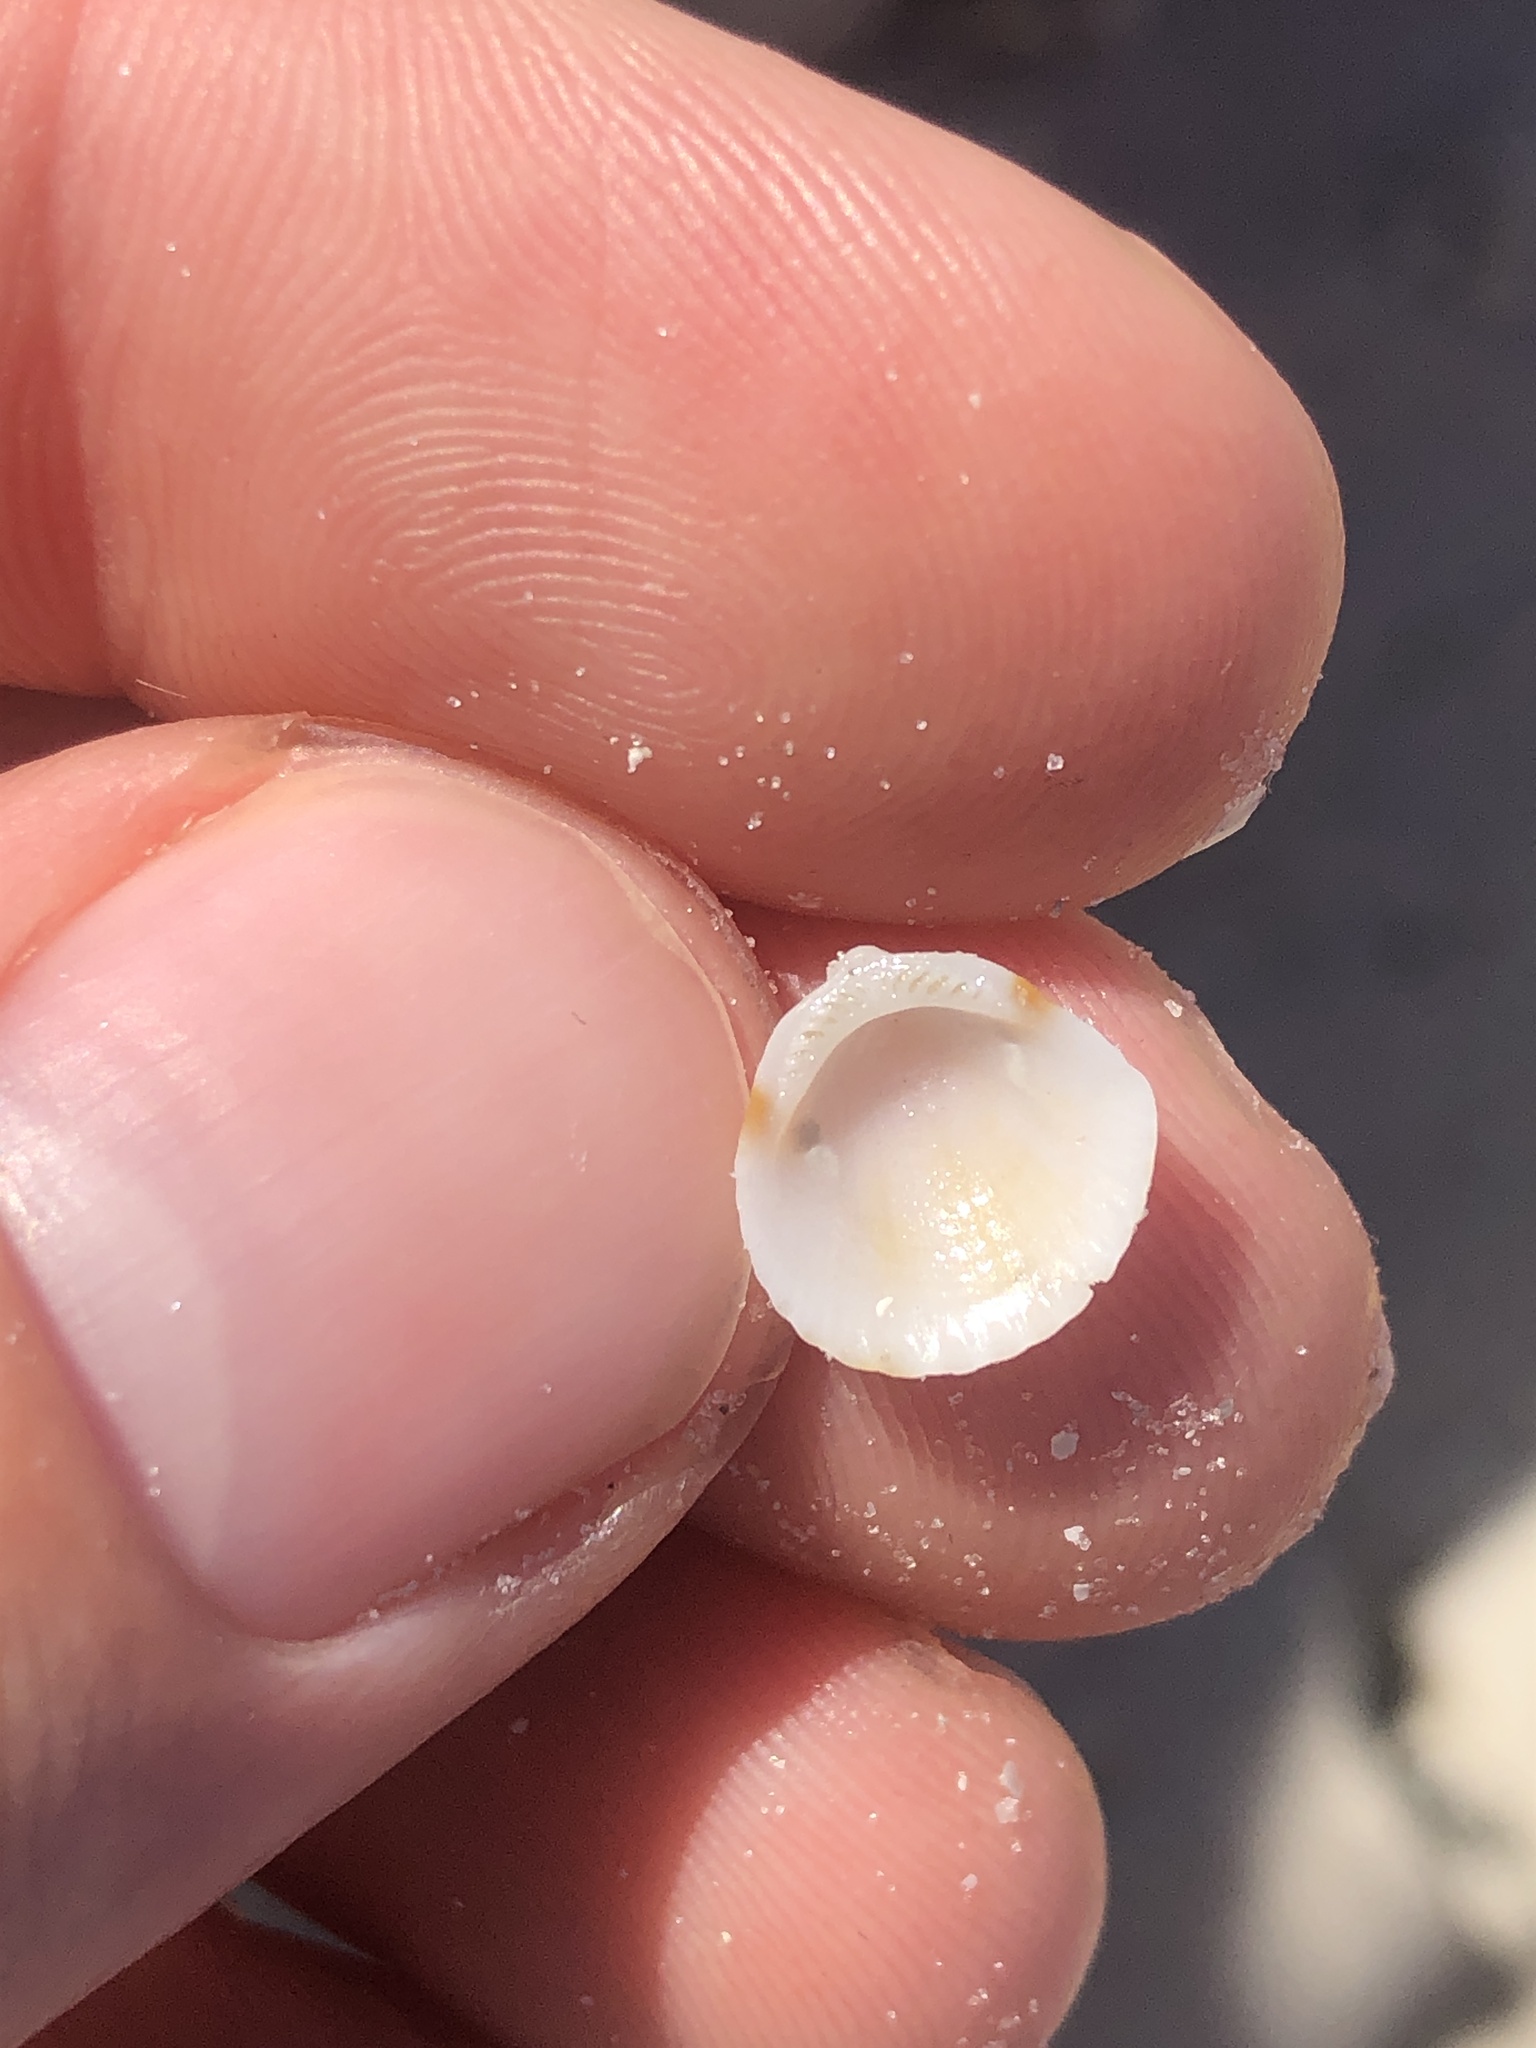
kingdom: Animalia
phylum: Mollusca
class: Bivalvia
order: Arcida
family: Glycymerididae
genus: Tucetona
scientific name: Tucetona pectinata
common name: Comb bittersweet
